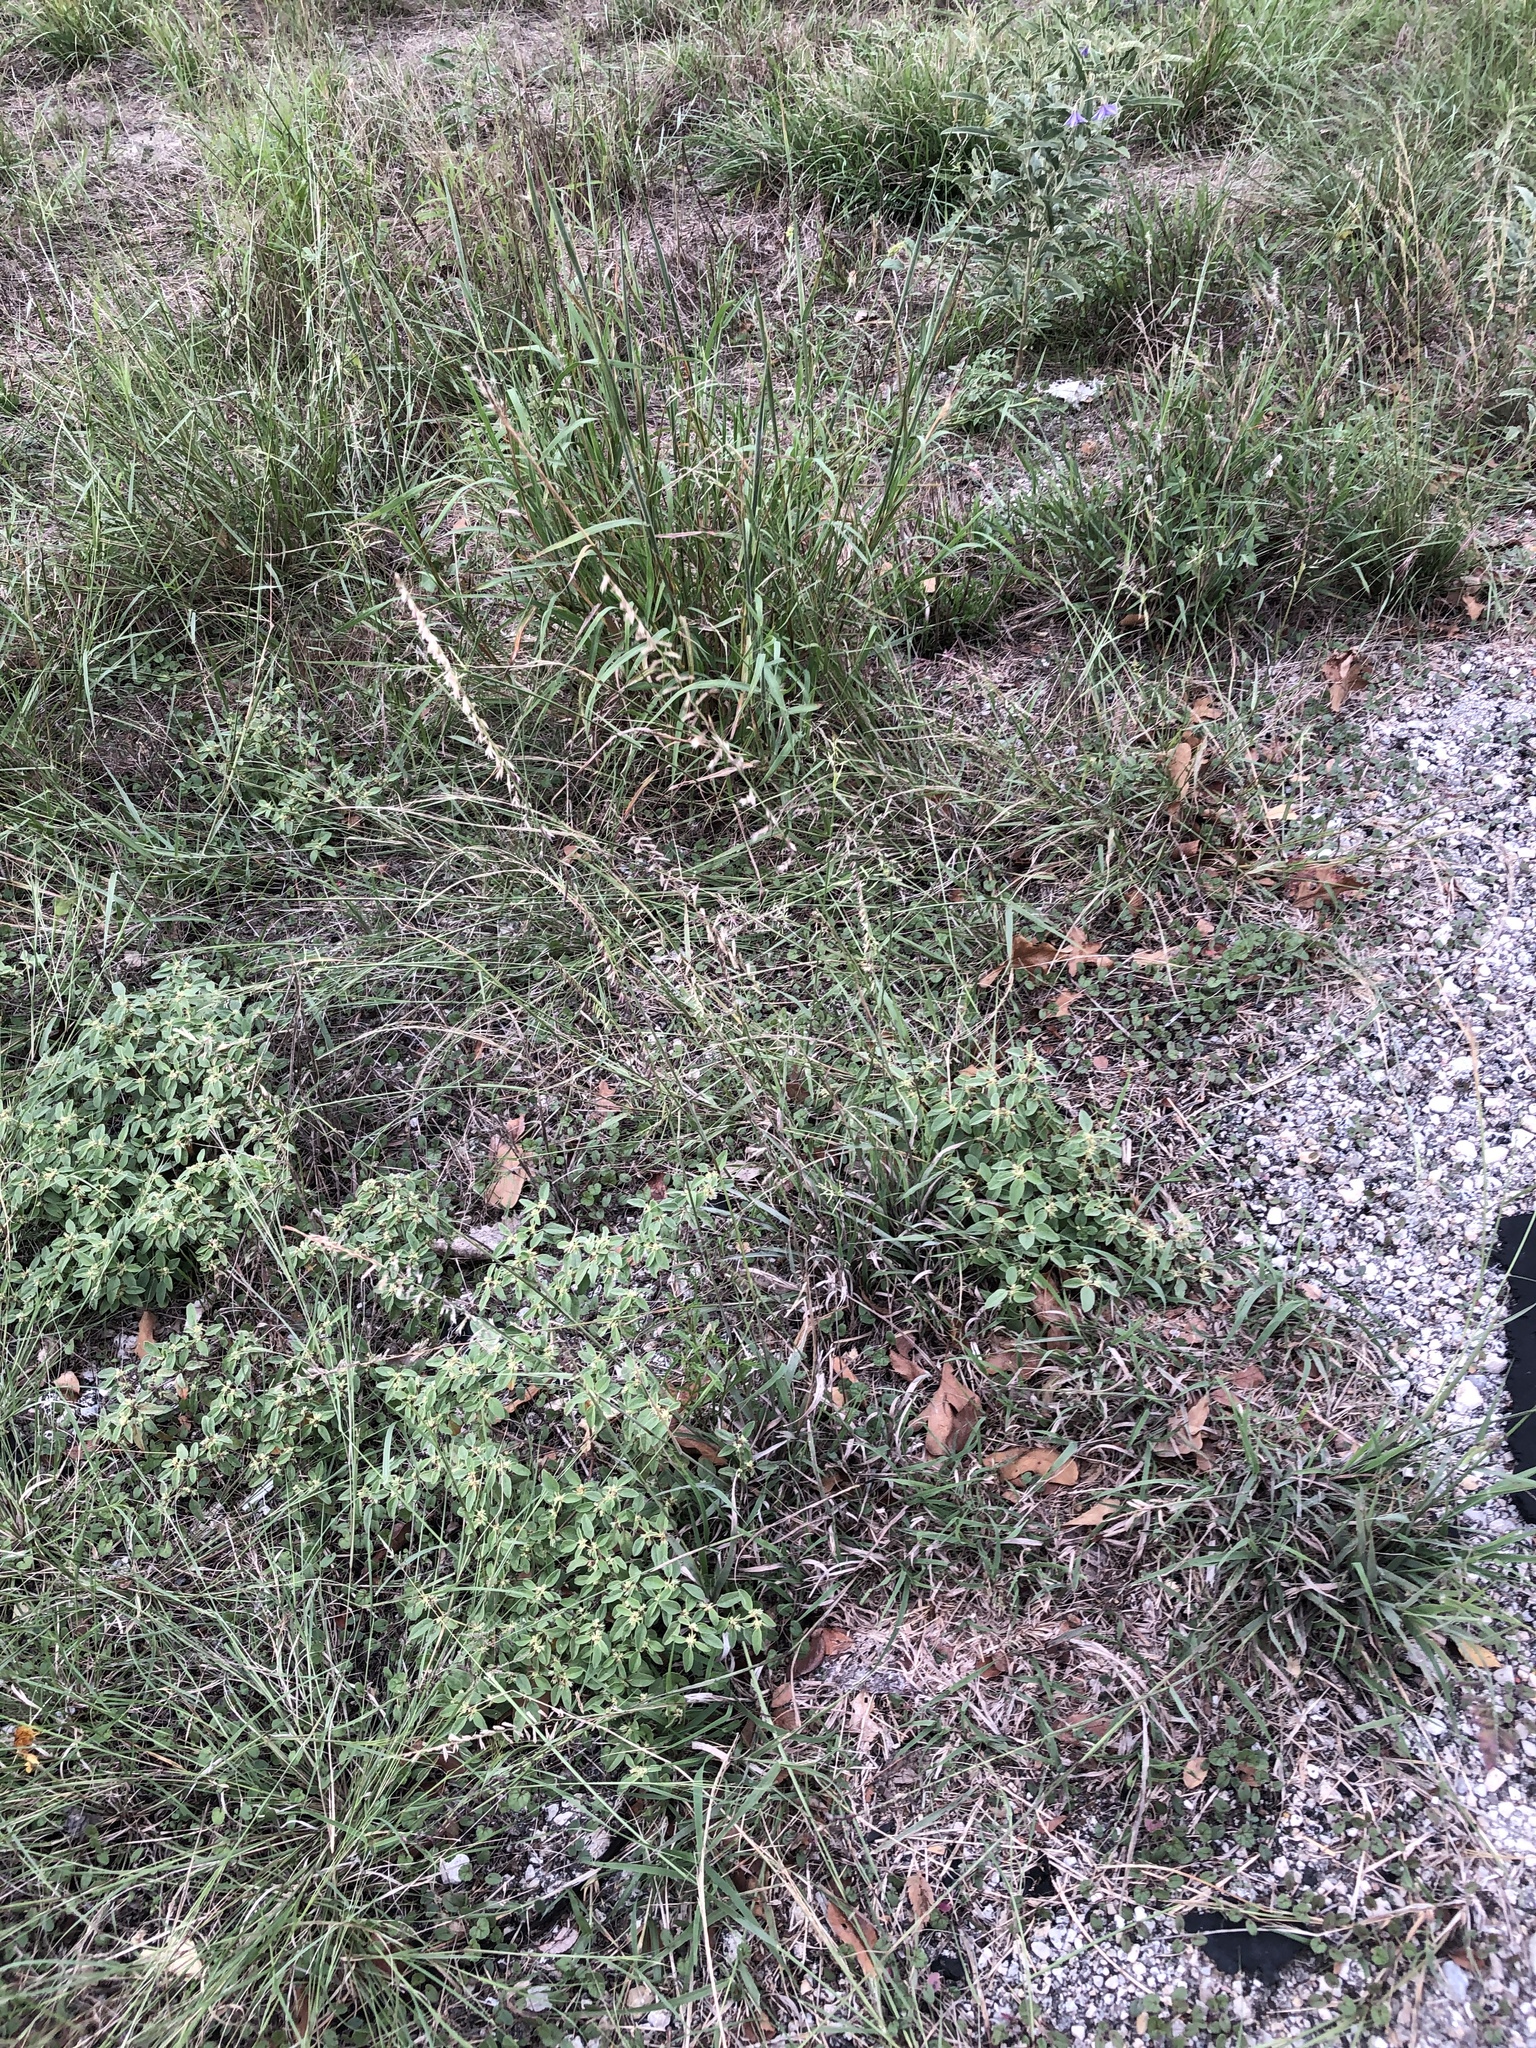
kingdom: Plantae
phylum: Tracheophyta
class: Liliopsida
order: Poales
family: Poaceae
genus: Bouteloua
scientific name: Bouteloua curtipendula
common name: Side-oats grama
